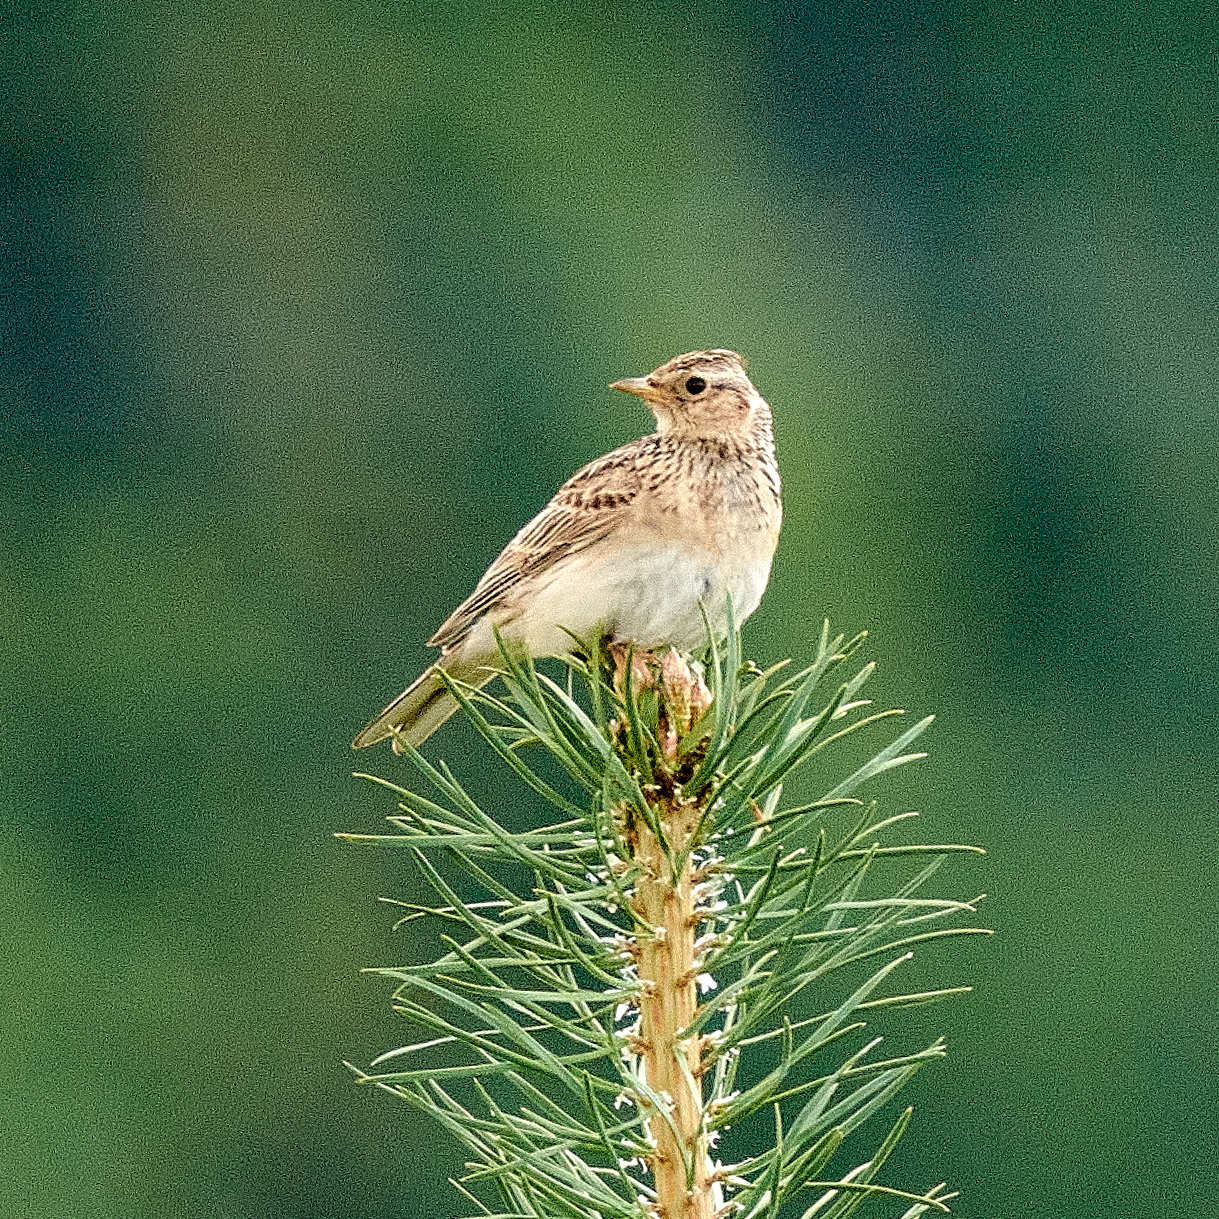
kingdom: Animalia
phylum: Chordata
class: Aves
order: Passeriformes
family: Alaudidae
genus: Alauda
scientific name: Alauda arvensis
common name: Eurasian skylark
